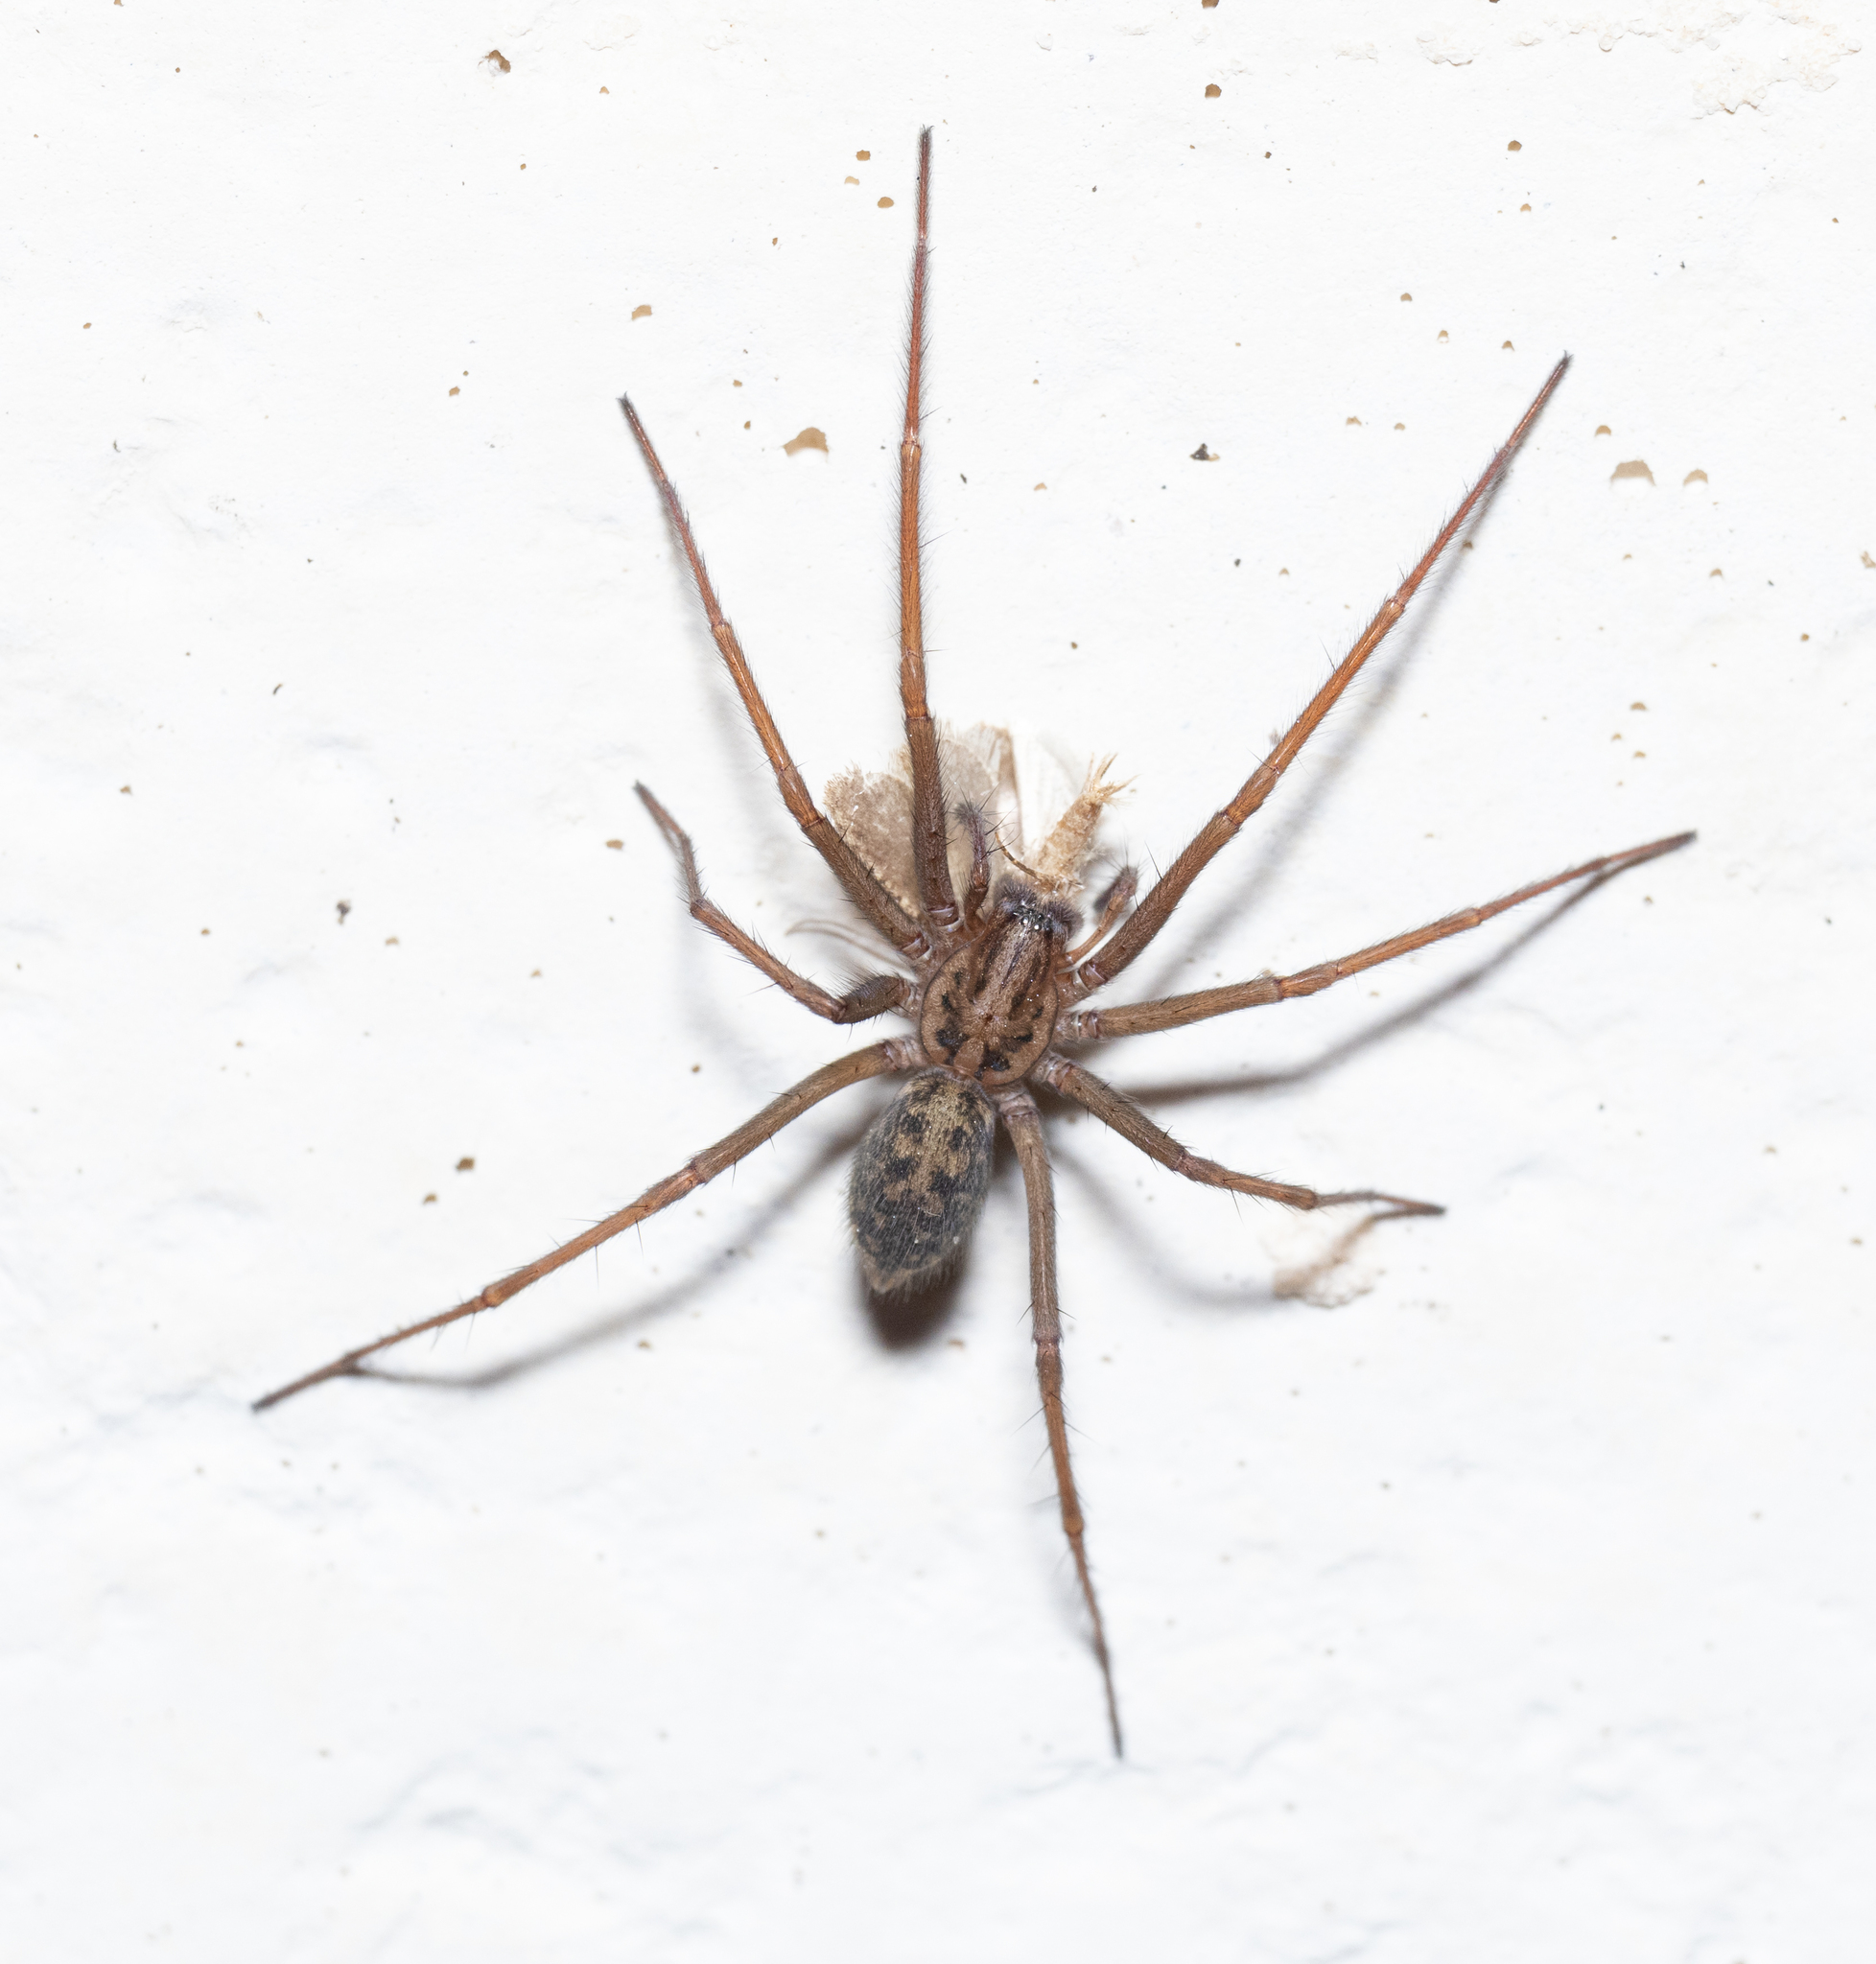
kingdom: Animalia
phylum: Arthropoda
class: Arachnida
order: Araneae
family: Agelenidae
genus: Eratigena
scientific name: Eratigena
